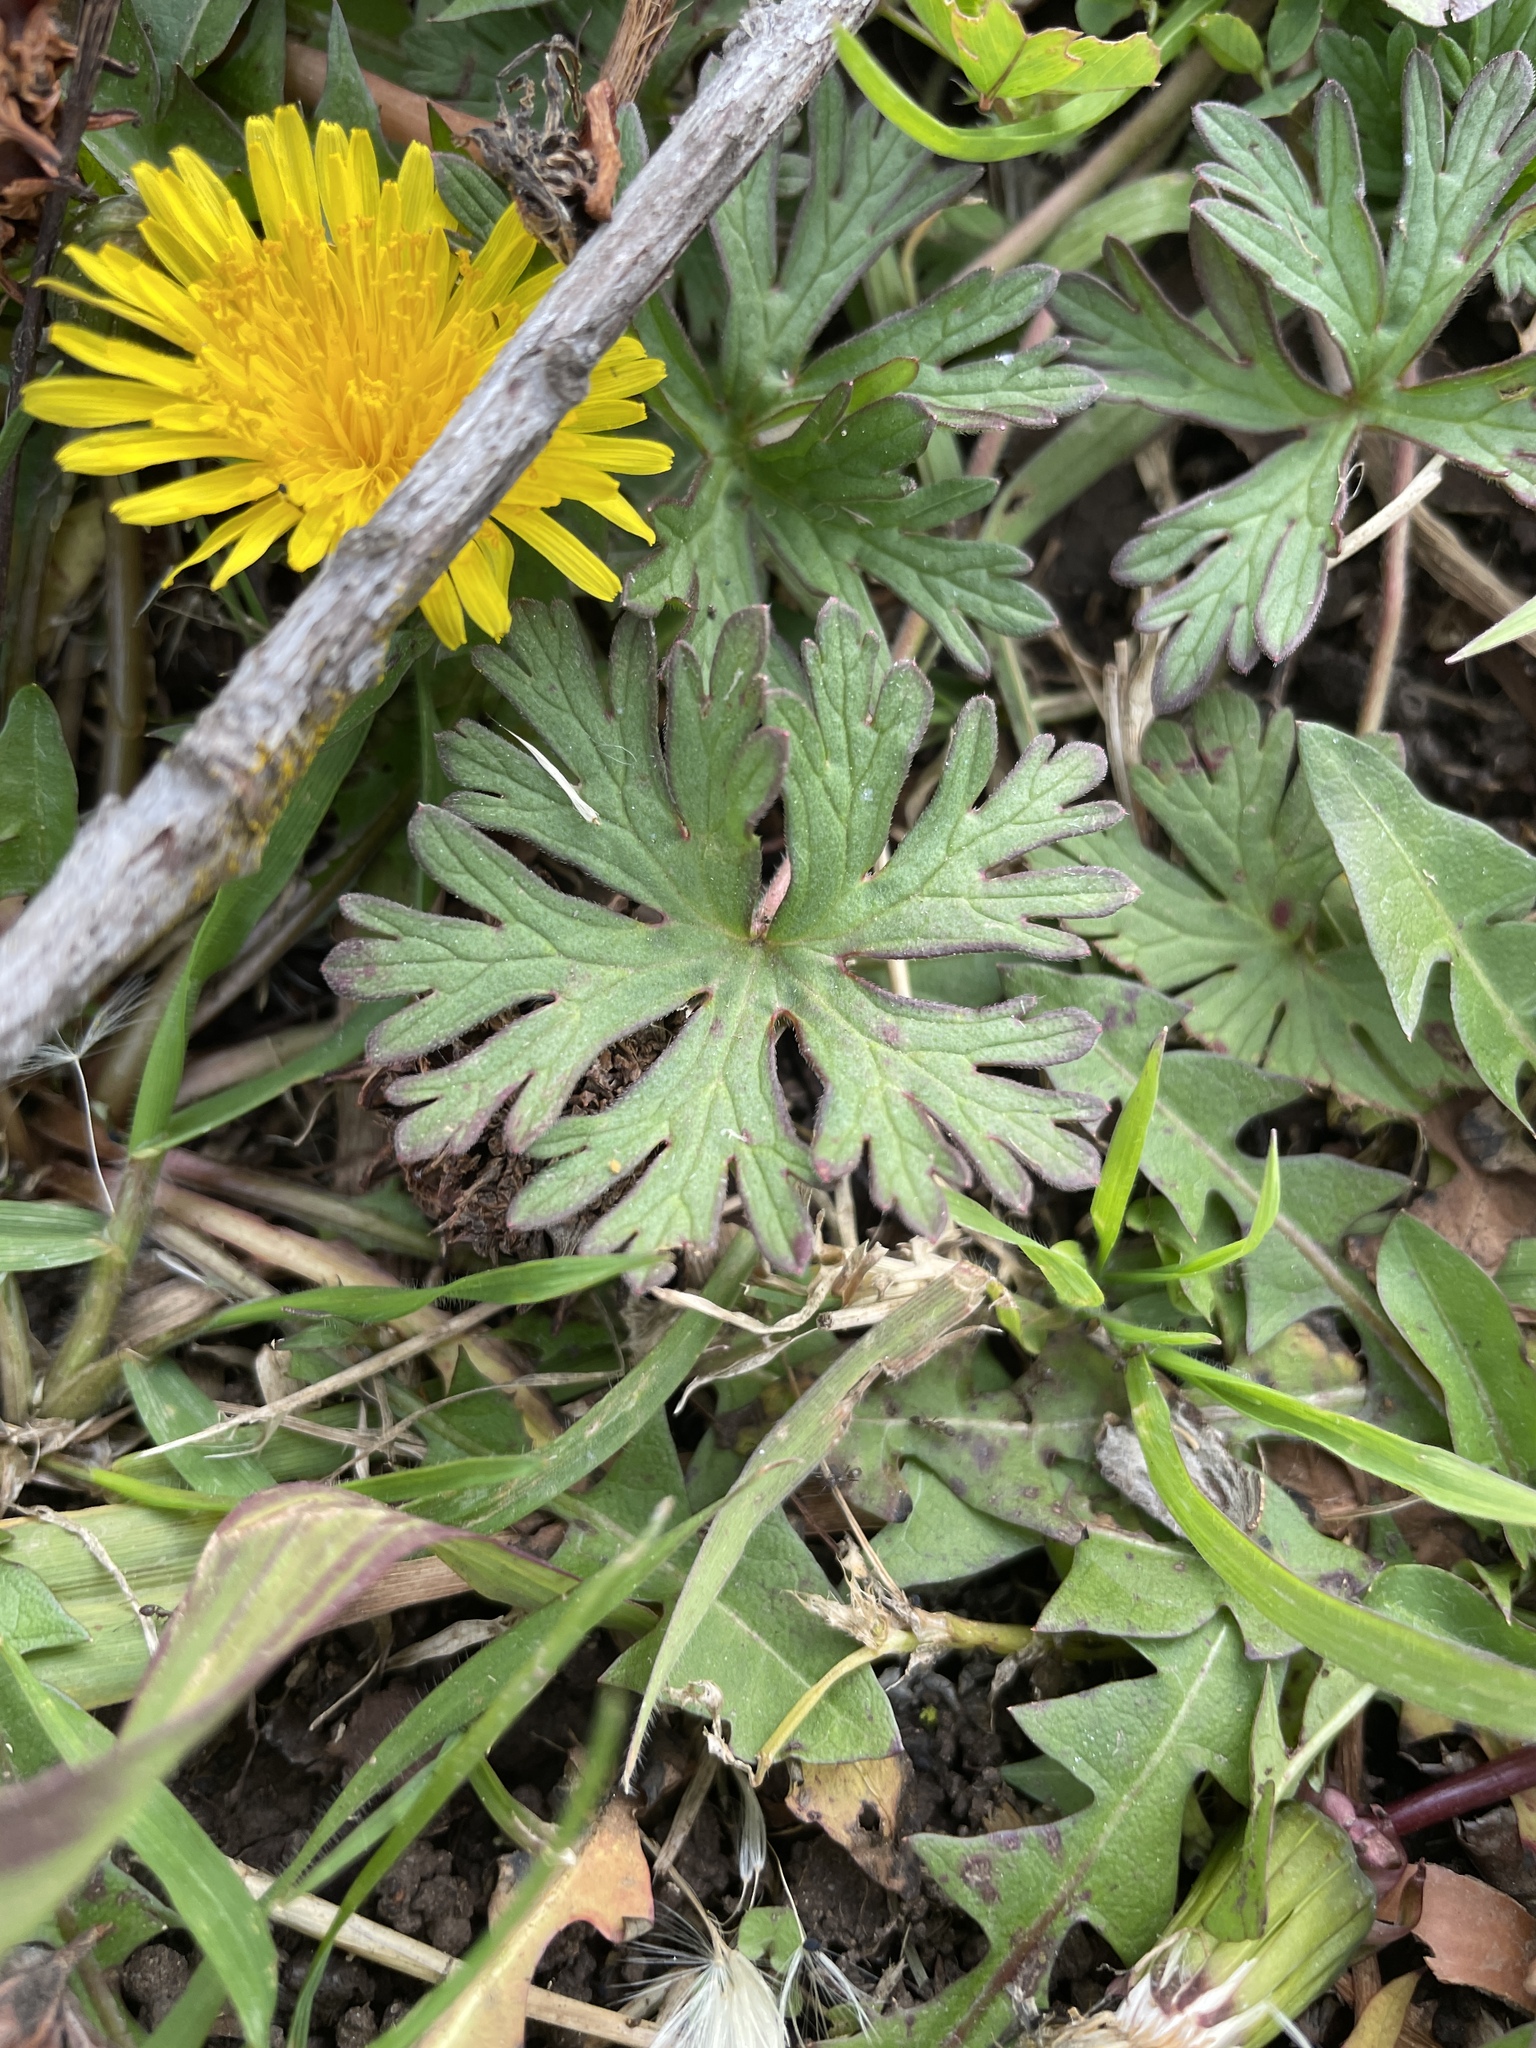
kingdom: Plantae
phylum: Tracheophyta
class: Magnoliopsida
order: Geraniales
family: Geraniaceae
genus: Geranium
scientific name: Geranium
